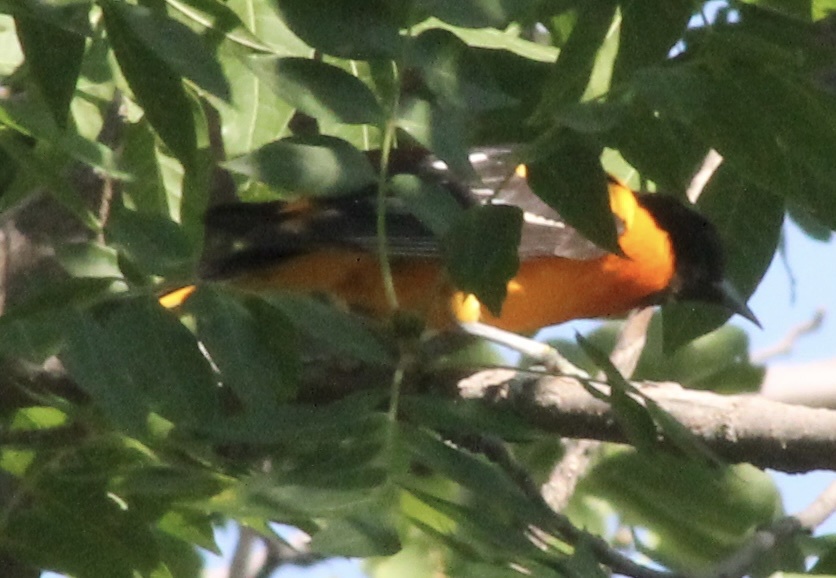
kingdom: Animalia
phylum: Chordata
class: Aves
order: Passeriformes
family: Icteridae
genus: Icterus
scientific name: Icterus galbula
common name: Baltimore oriole
